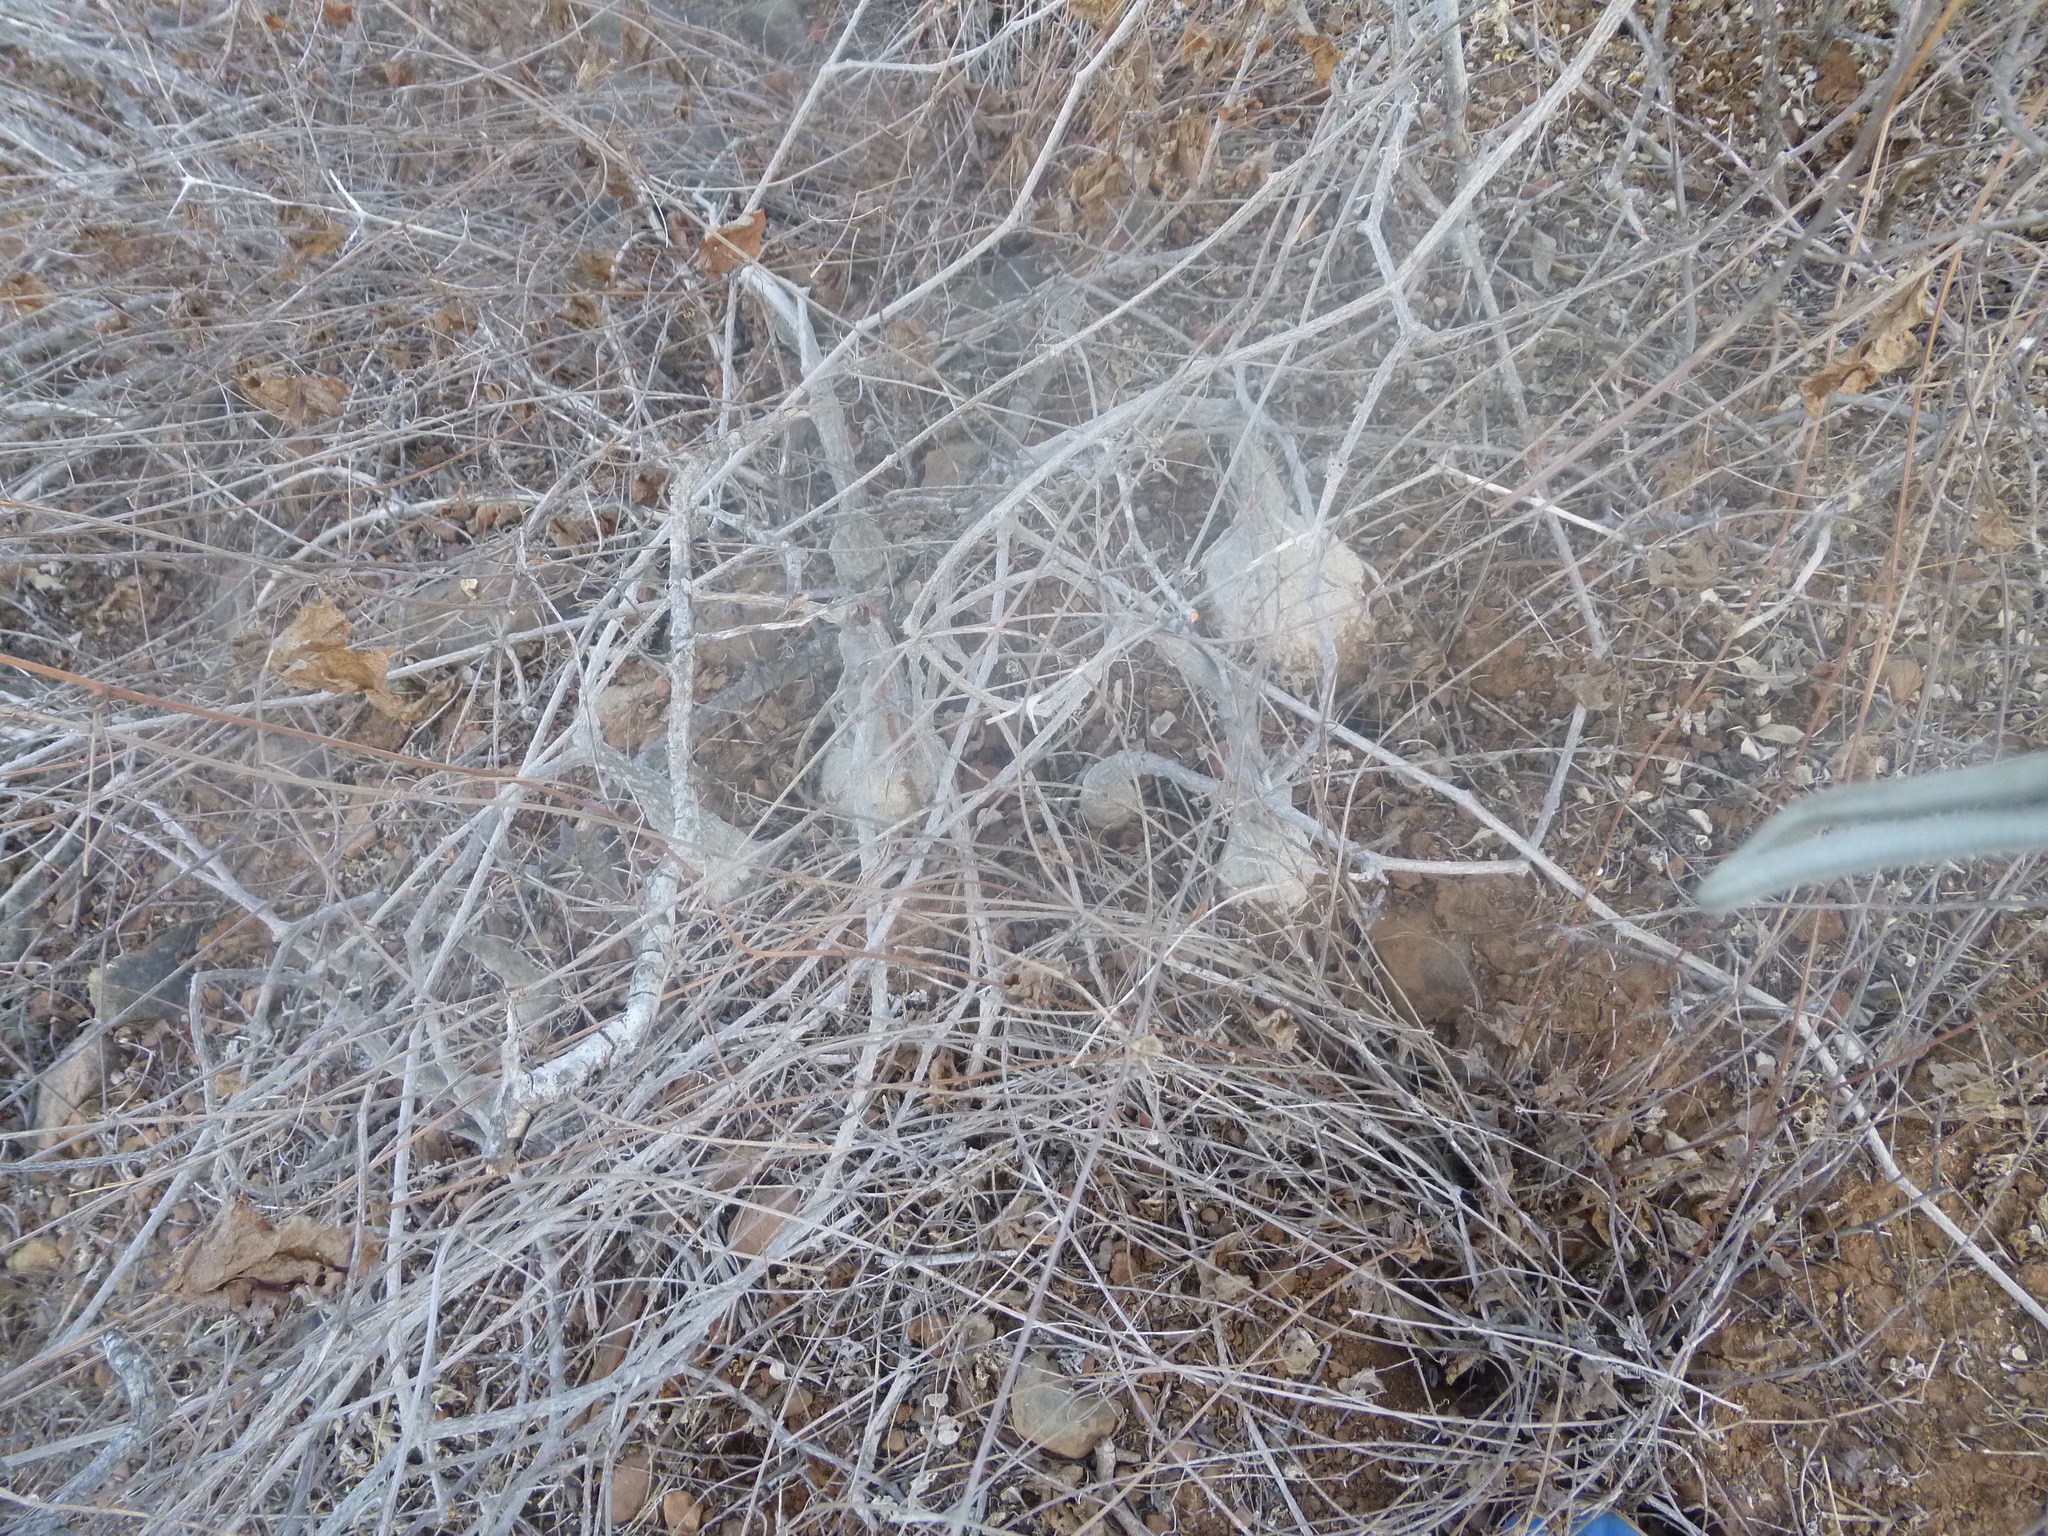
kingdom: Plantae
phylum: Tracheophyta
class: Magnoliopsida
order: Cucurbitales
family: Cucurbitaceae
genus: Ibervillea
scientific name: Ibervillea sonorae
